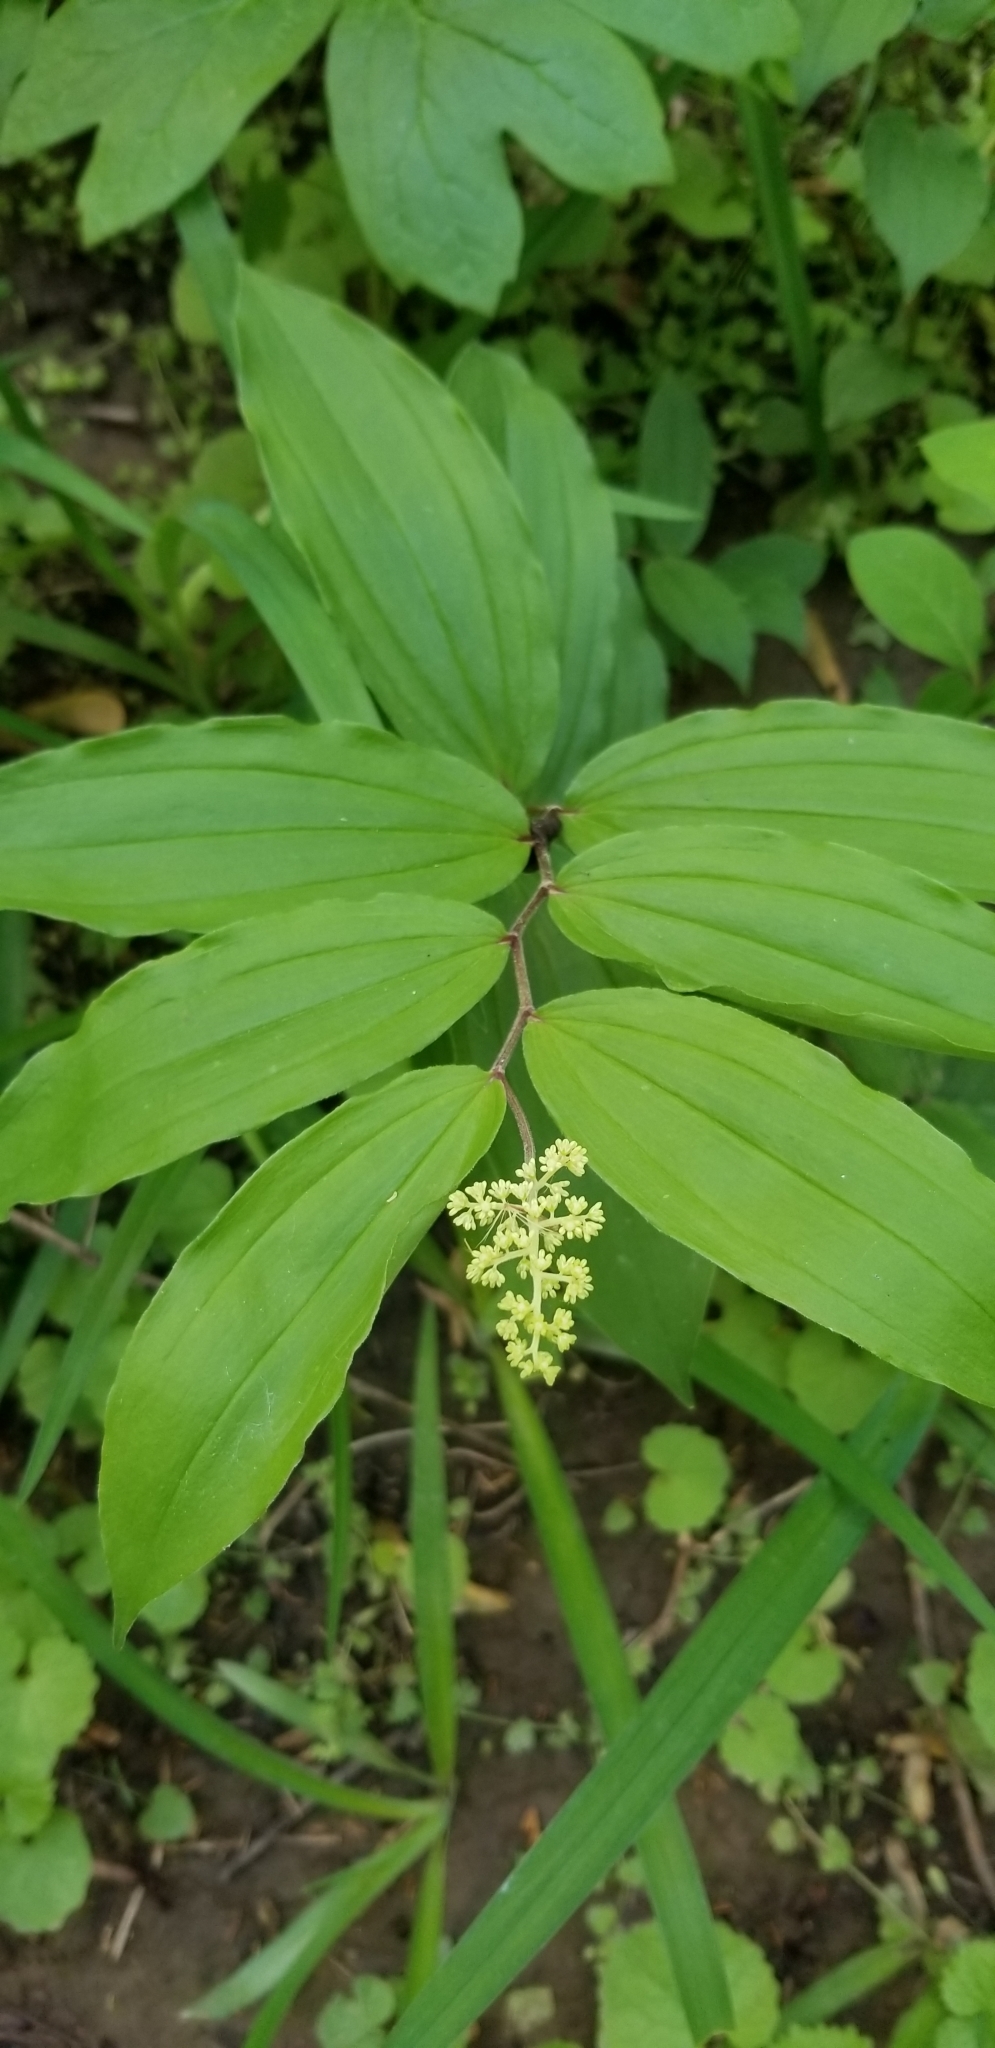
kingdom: Plantae
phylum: Tracheophyta
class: Liliopsida
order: Asparagales
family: Asparagaceae
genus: Maianthemum
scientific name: Maianthemum racemosum
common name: False spikenard
